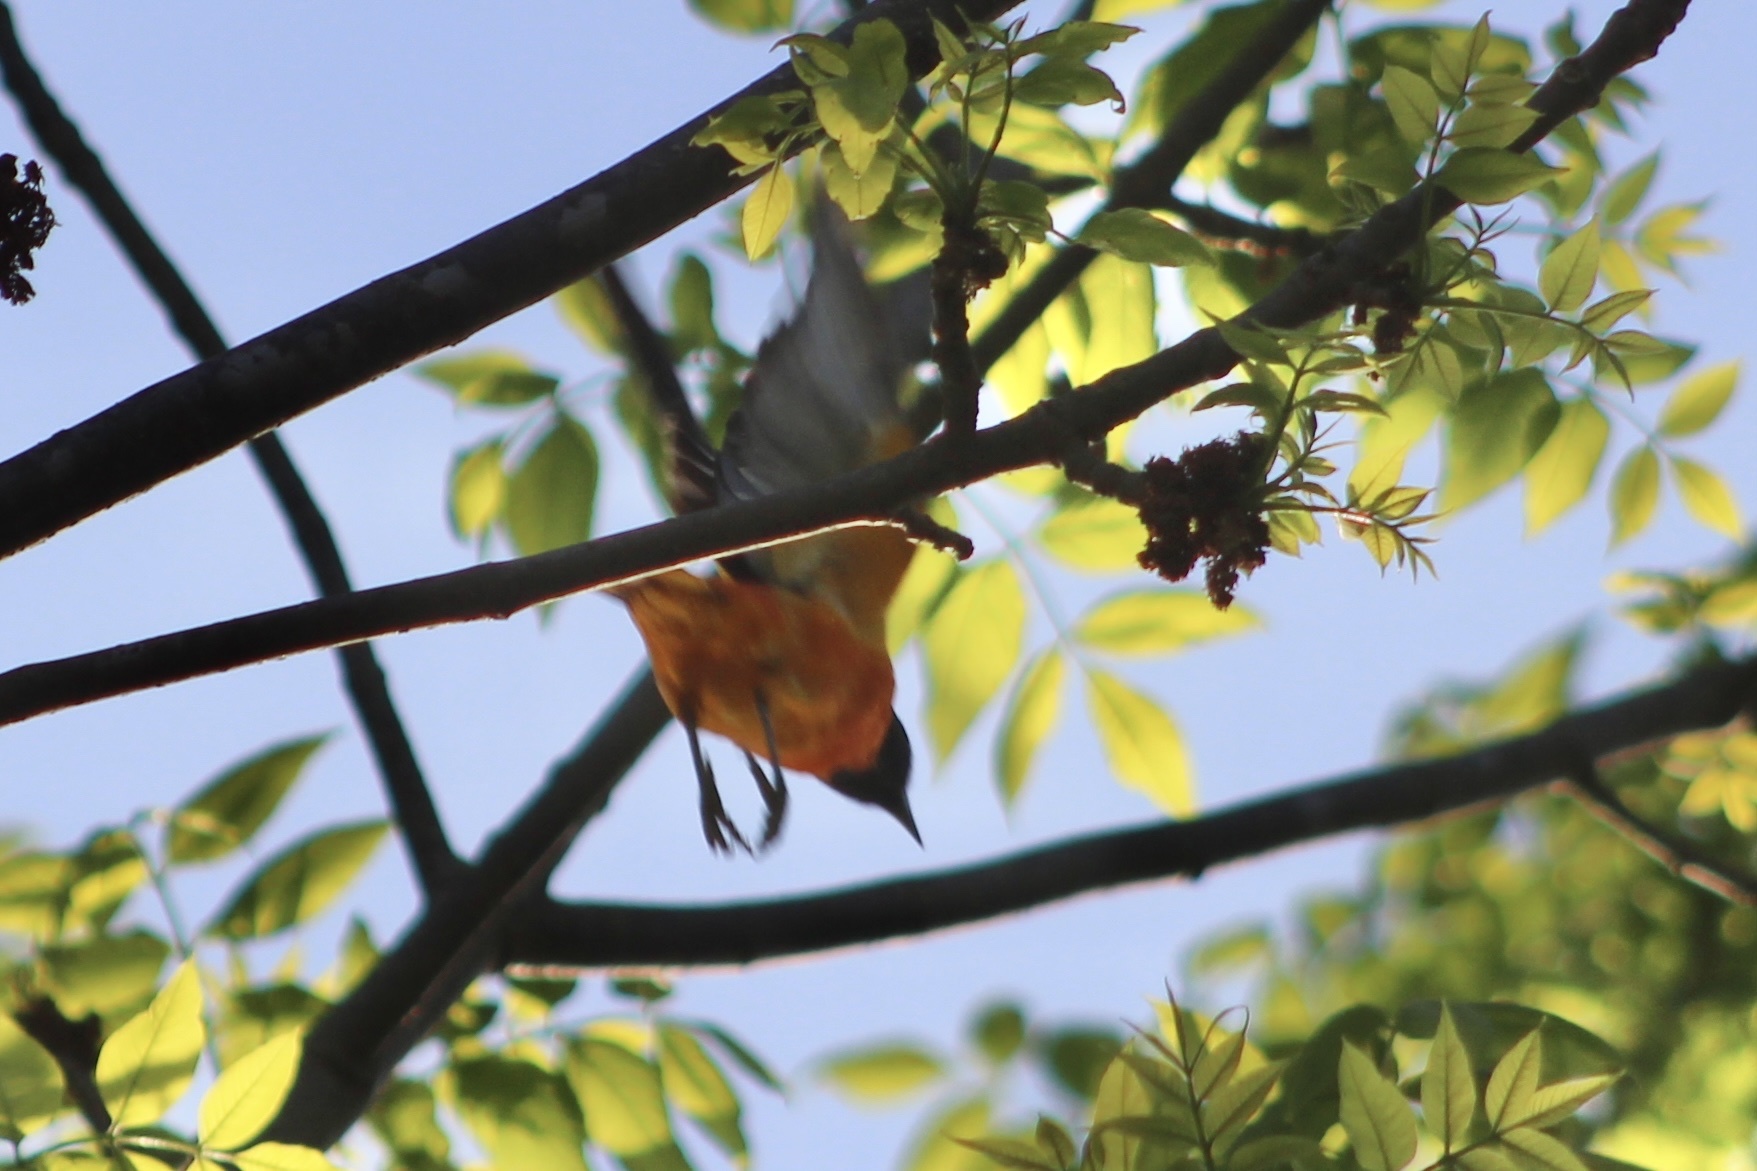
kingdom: Animalia
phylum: Chordata
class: Aves
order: Passeriformes
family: Icteridae
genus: Icterus
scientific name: Icterus galbula
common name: Baltimore oriole
